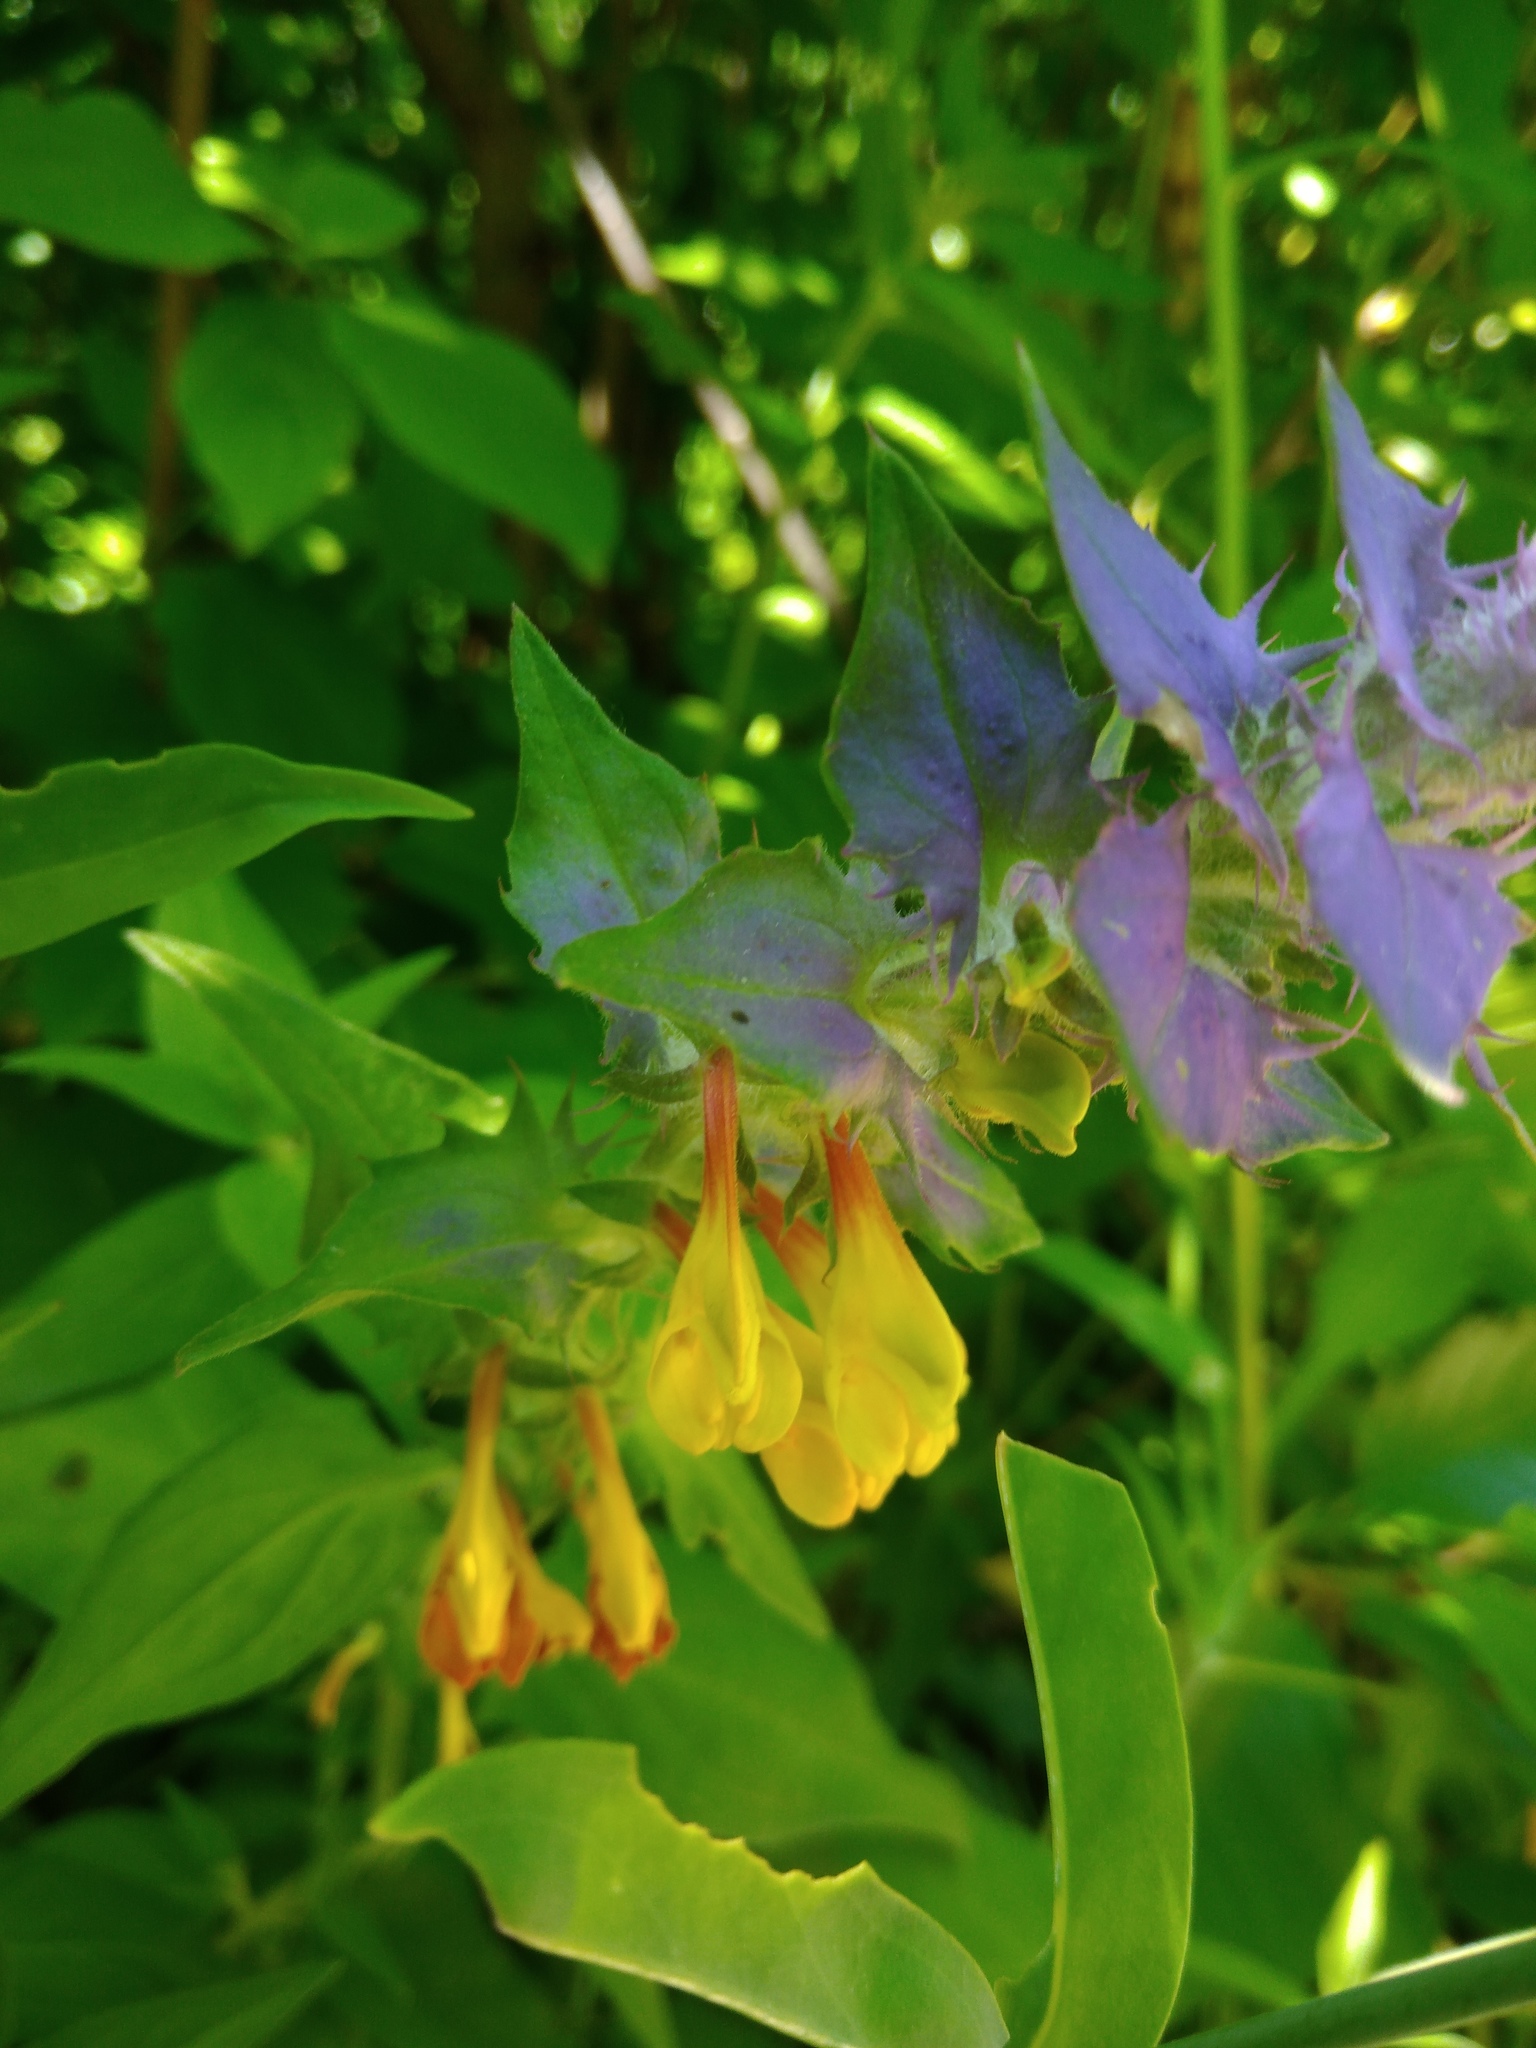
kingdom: Plantae
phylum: Tracheophyta
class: Magnoliopsida
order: Lamiales
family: Orobanchaceae
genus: Melampyrum
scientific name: Melampyrum nemorosum
